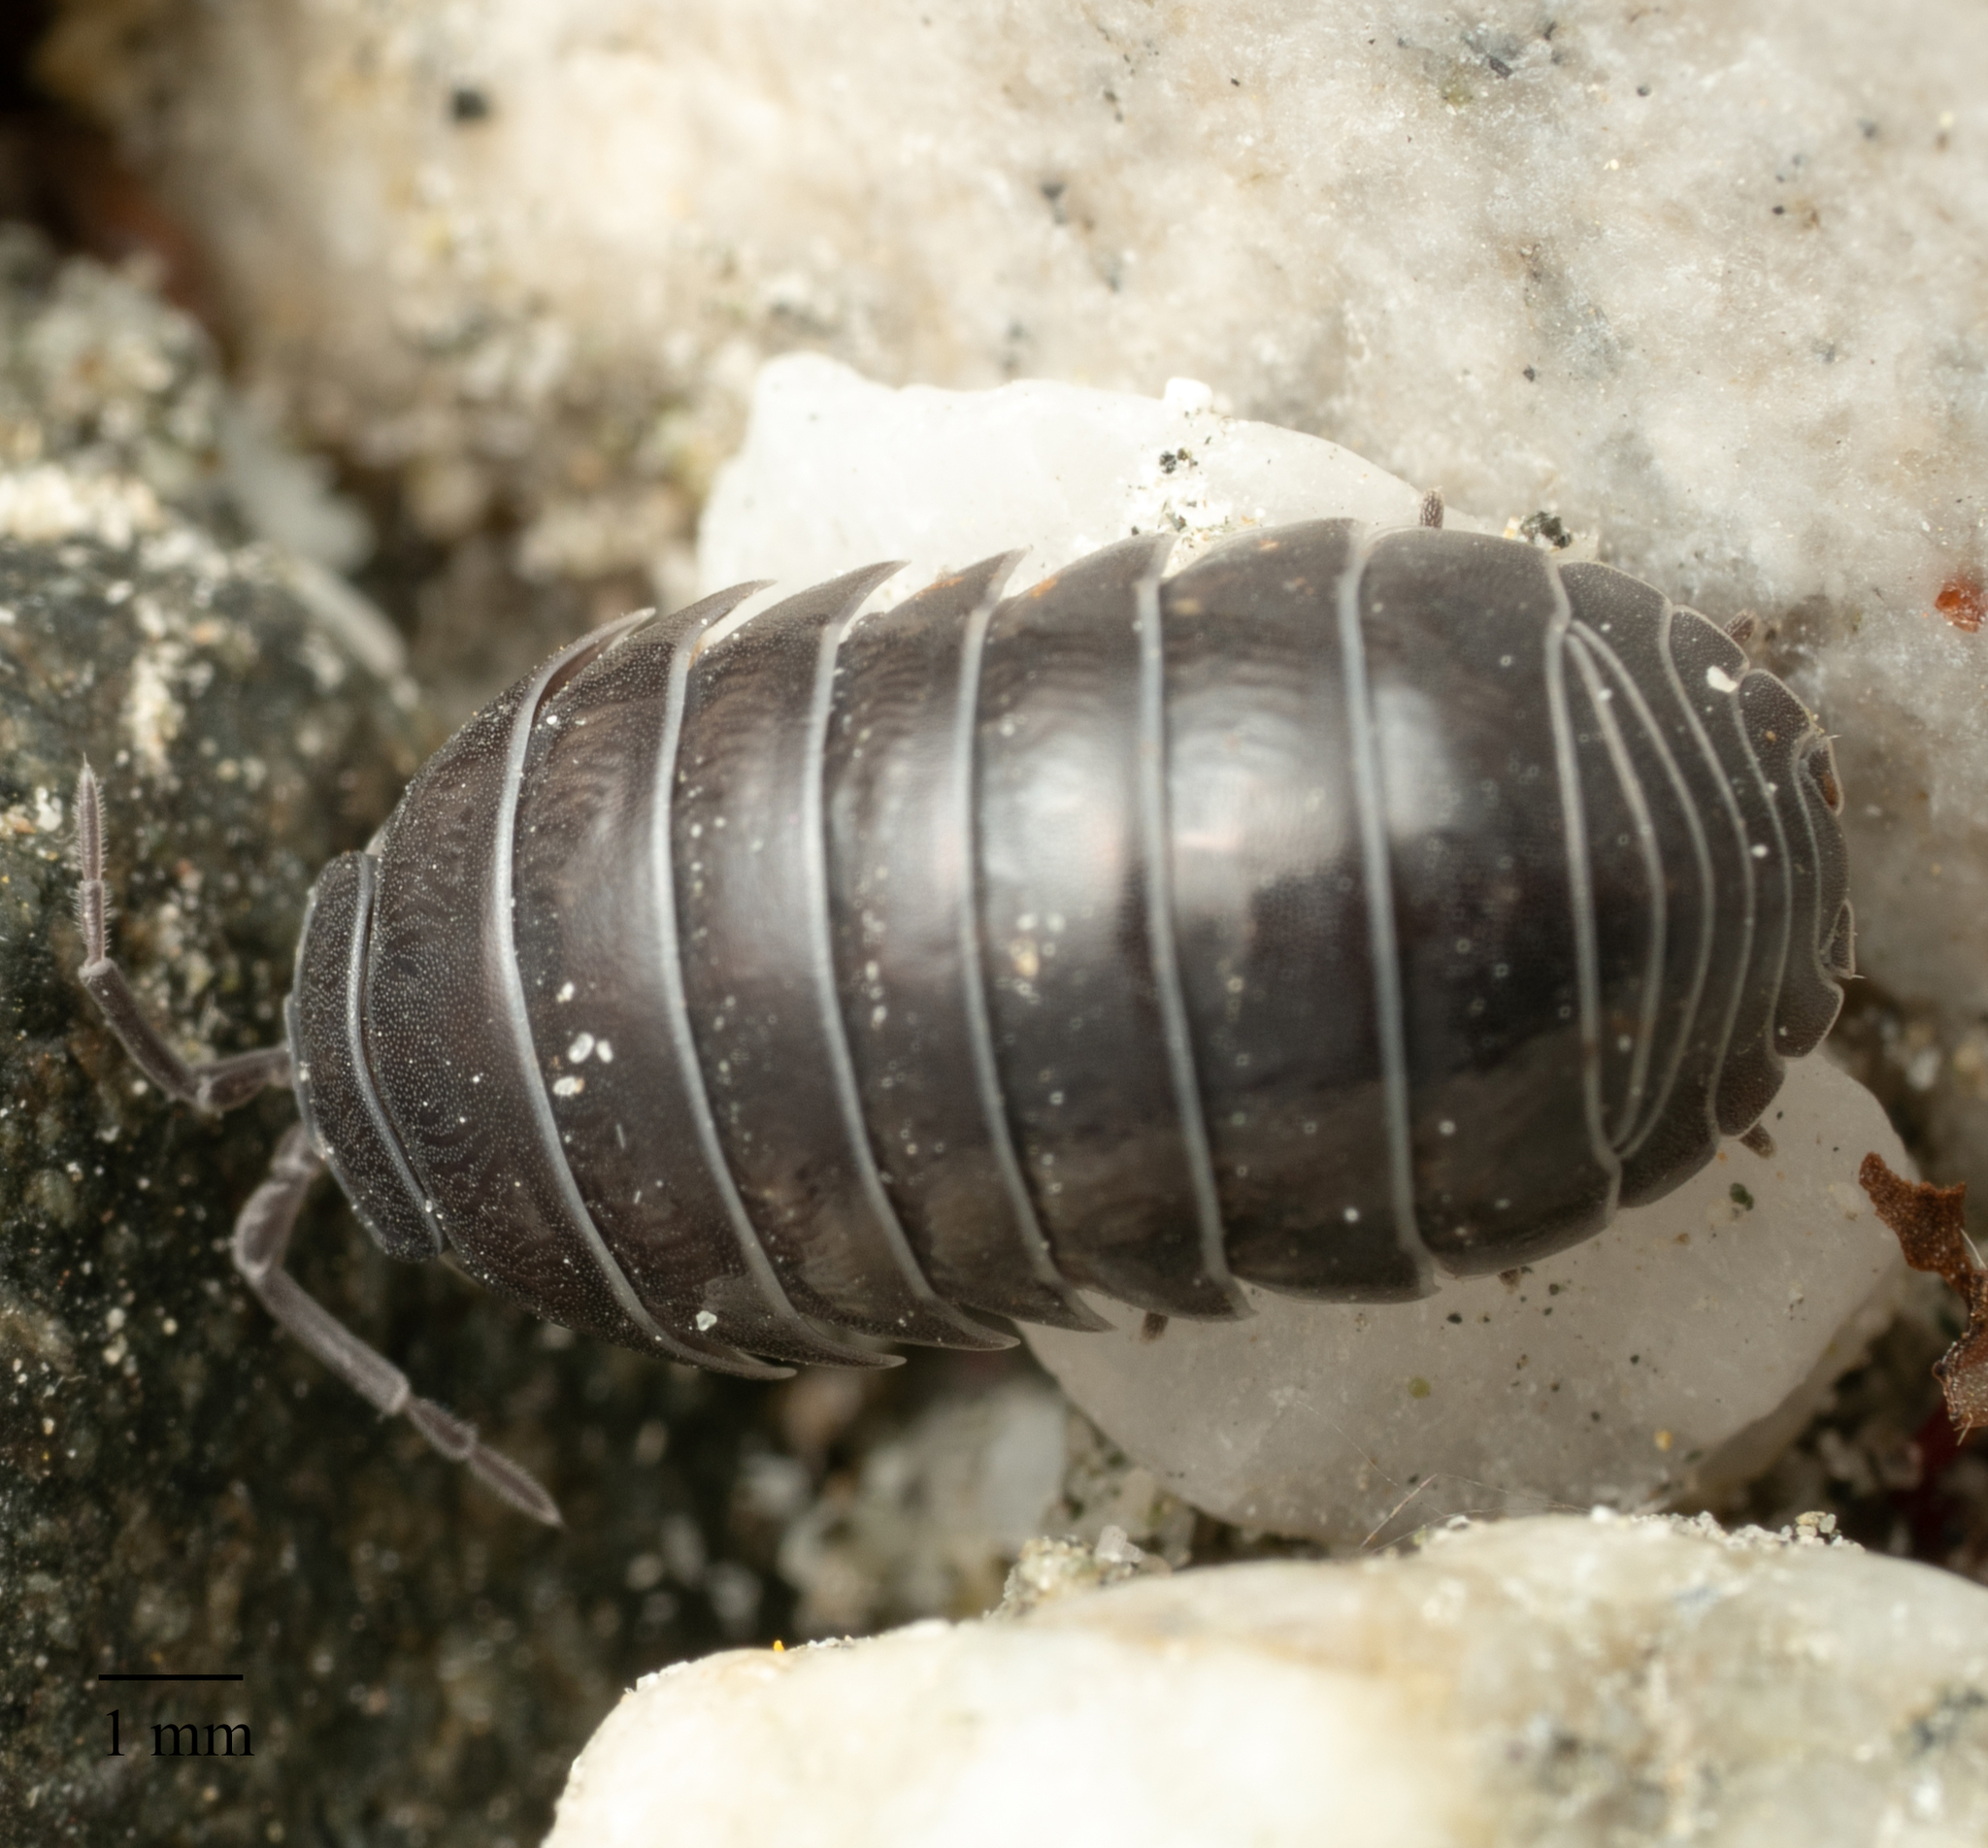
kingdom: Animalia
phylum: Arthropoda
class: Malacostraca
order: Isopoda
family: Armadillidiidae
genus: Armadillidium
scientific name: Armadillidium vulgare
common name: Common pill woodlouse
